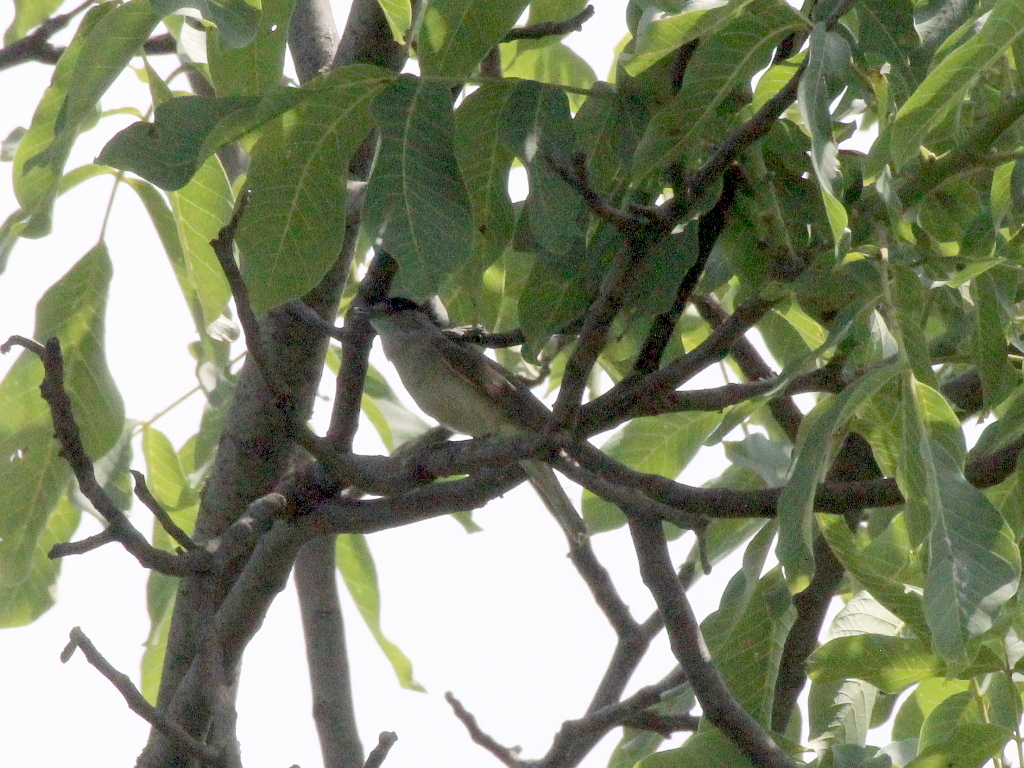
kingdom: Animalia
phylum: Chordata
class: Aves
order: Passeriformes
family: Sylviidae
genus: Sylvia
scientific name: Sylvia atricapilla
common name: Eurasian blackcap
